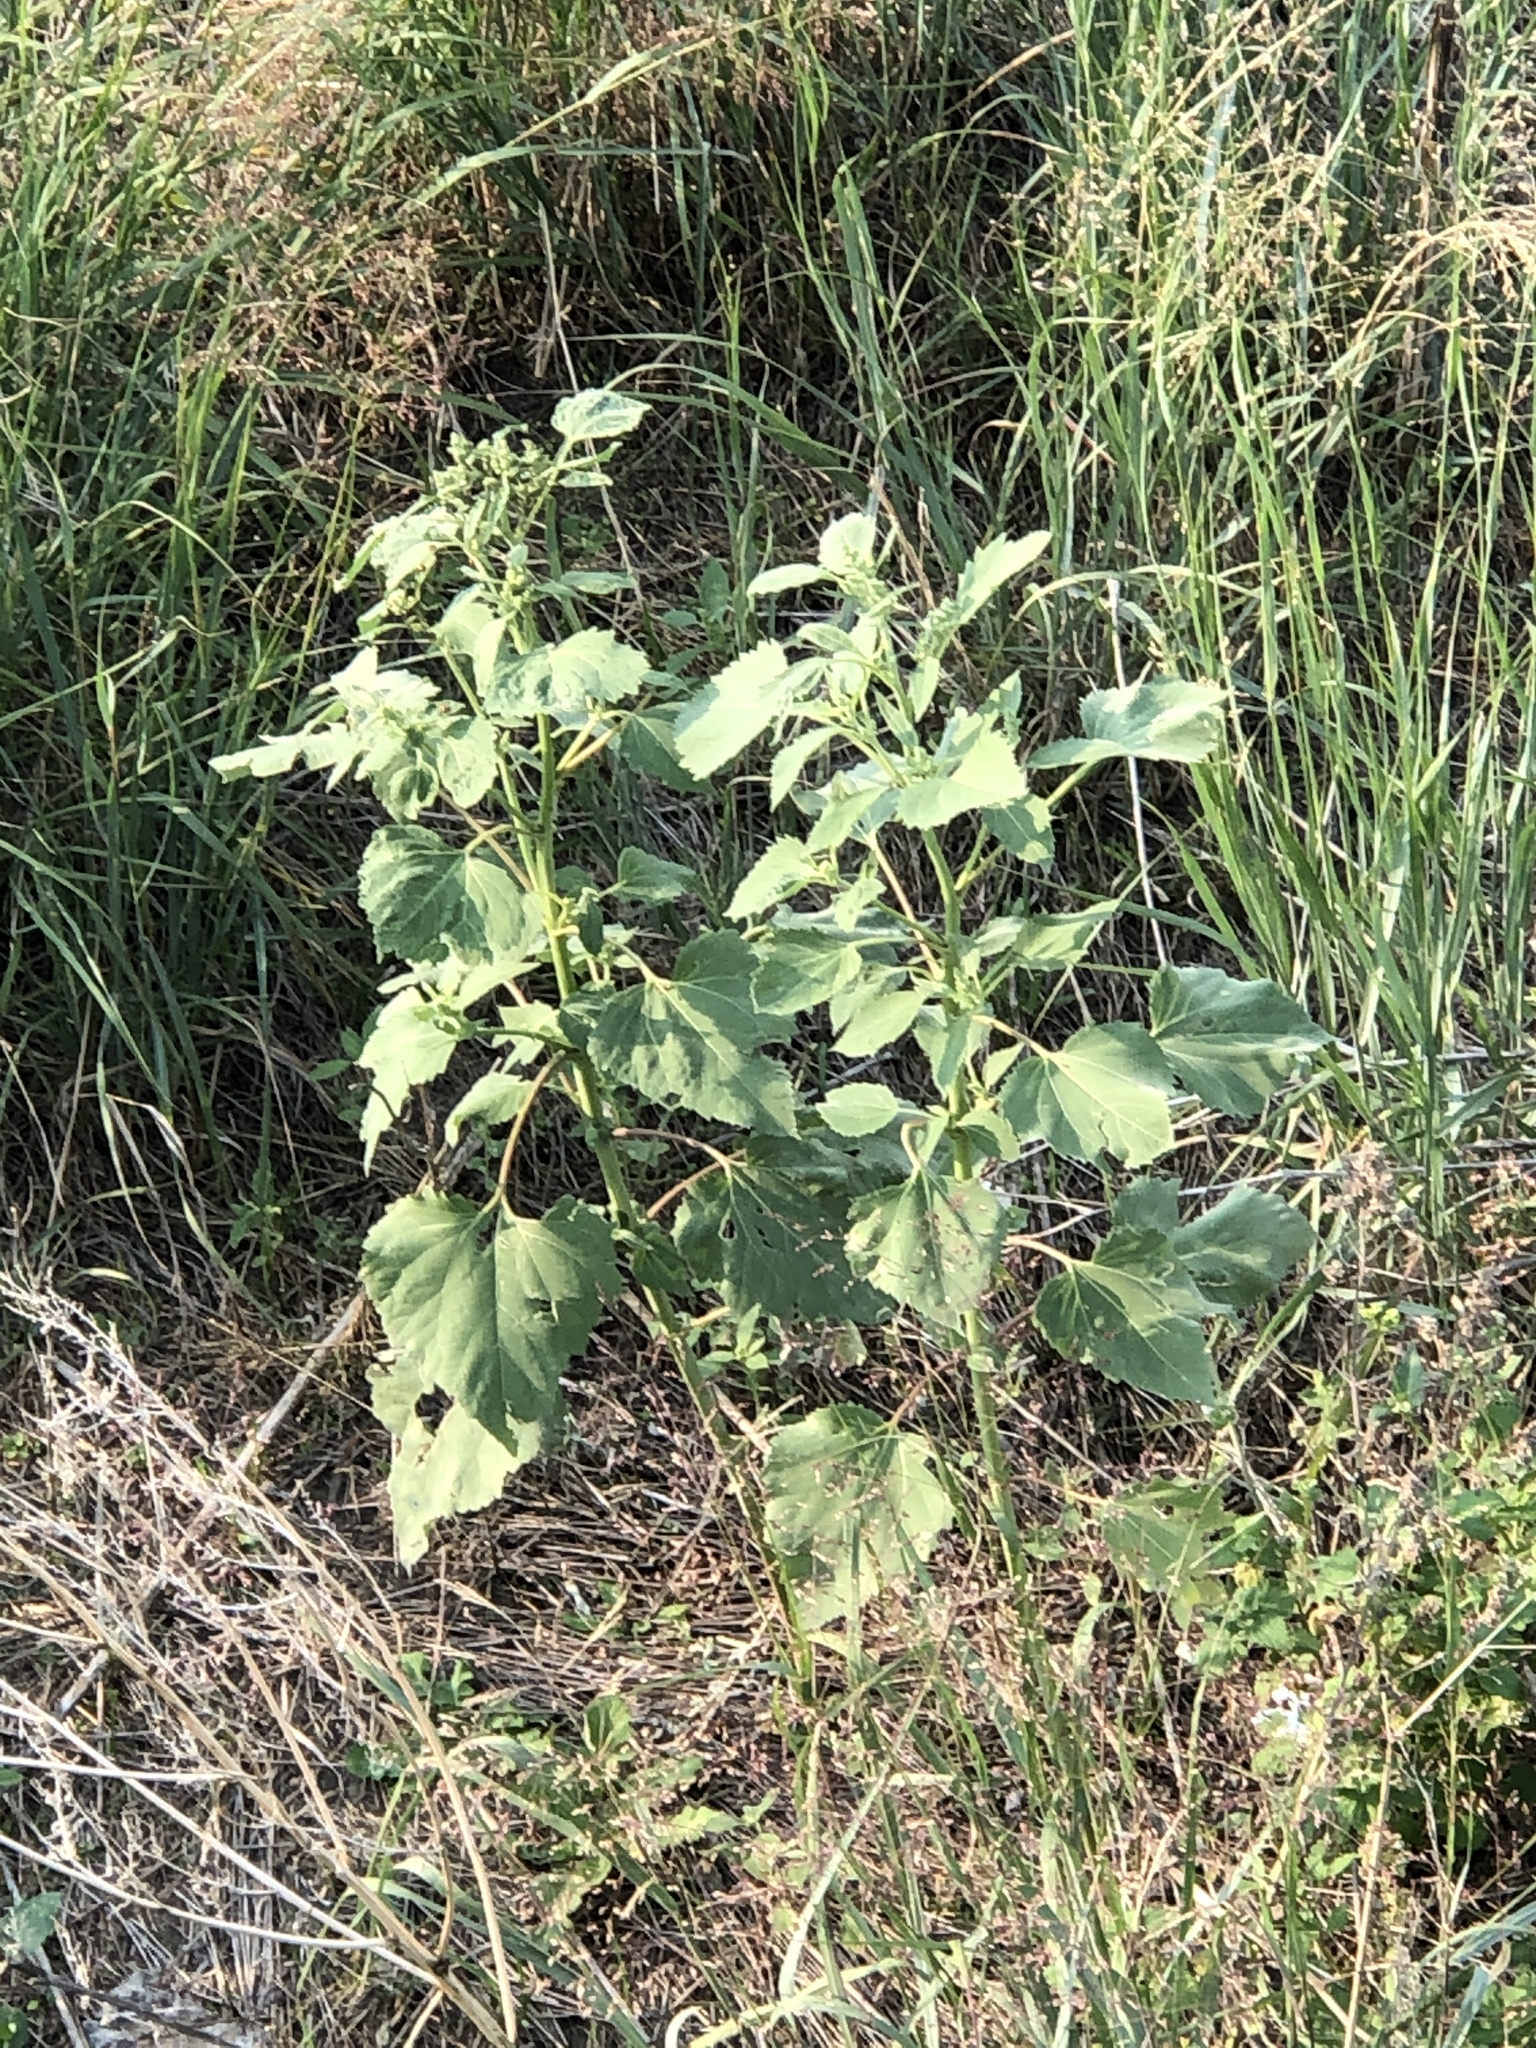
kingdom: Plantae
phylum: Tracheophyta
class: Magnoliopsida
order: Asterales
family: Asteraceae
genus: Cyclachaena
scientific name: Cyclachaena xanthiifolia
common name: Giant sumpweed
